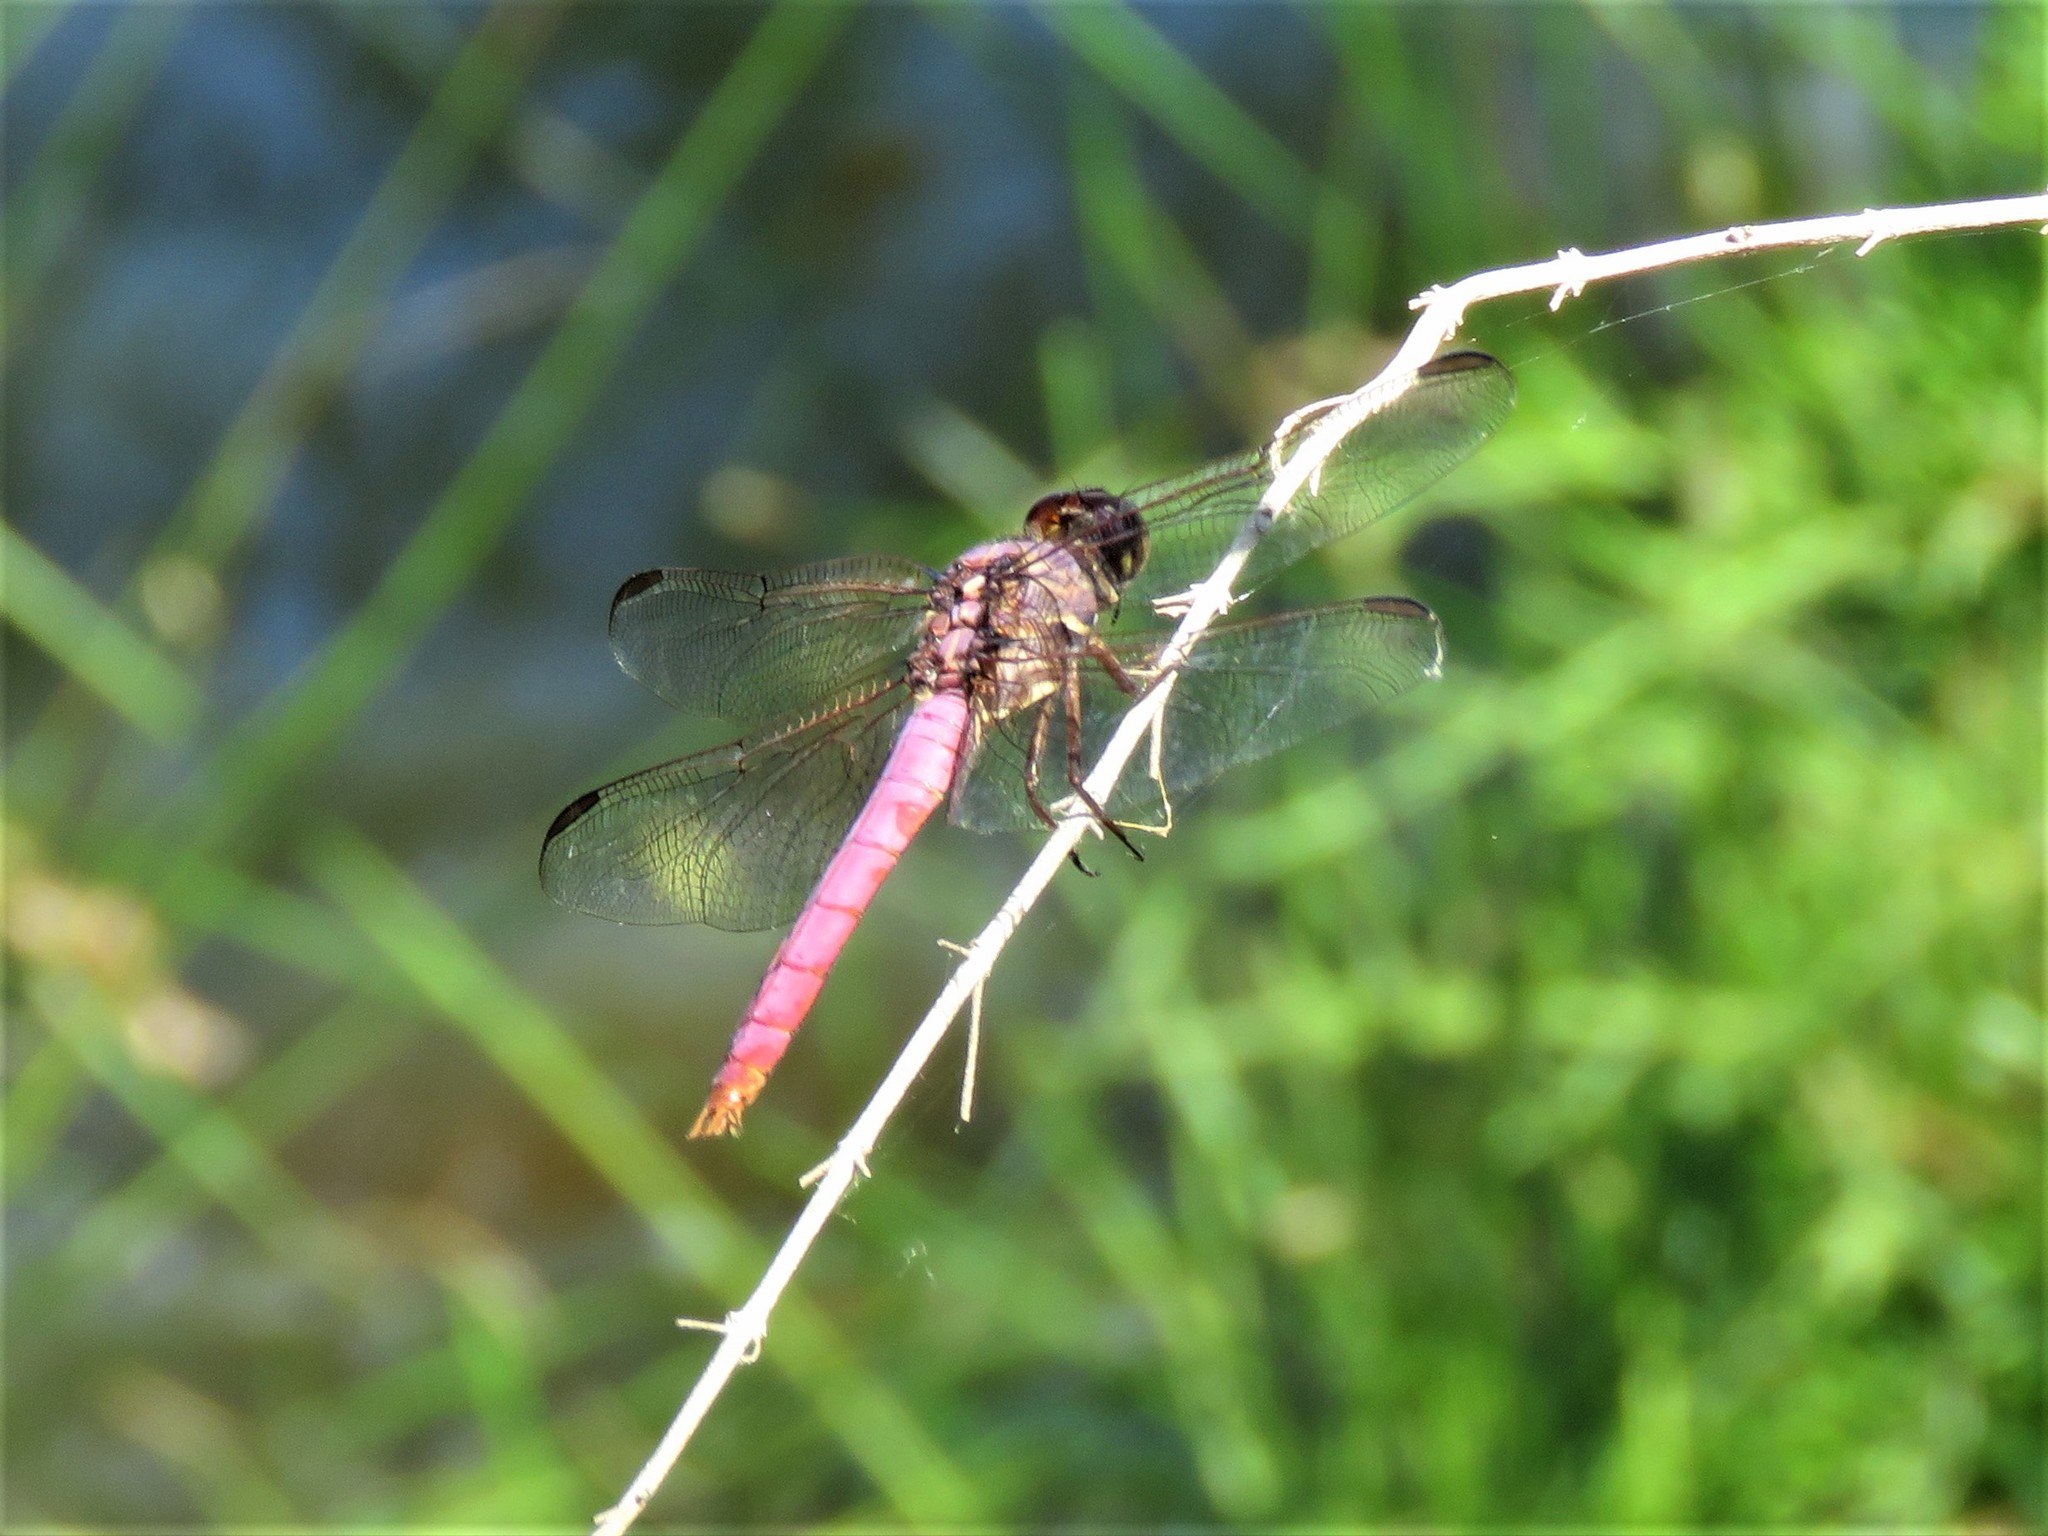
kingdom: Animalia
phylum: Arthropoda
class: Insecta
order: Odonata
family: Libellulidae
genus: Orthemis
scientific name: Orthemis ferruginea
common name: Roseate skimmer
